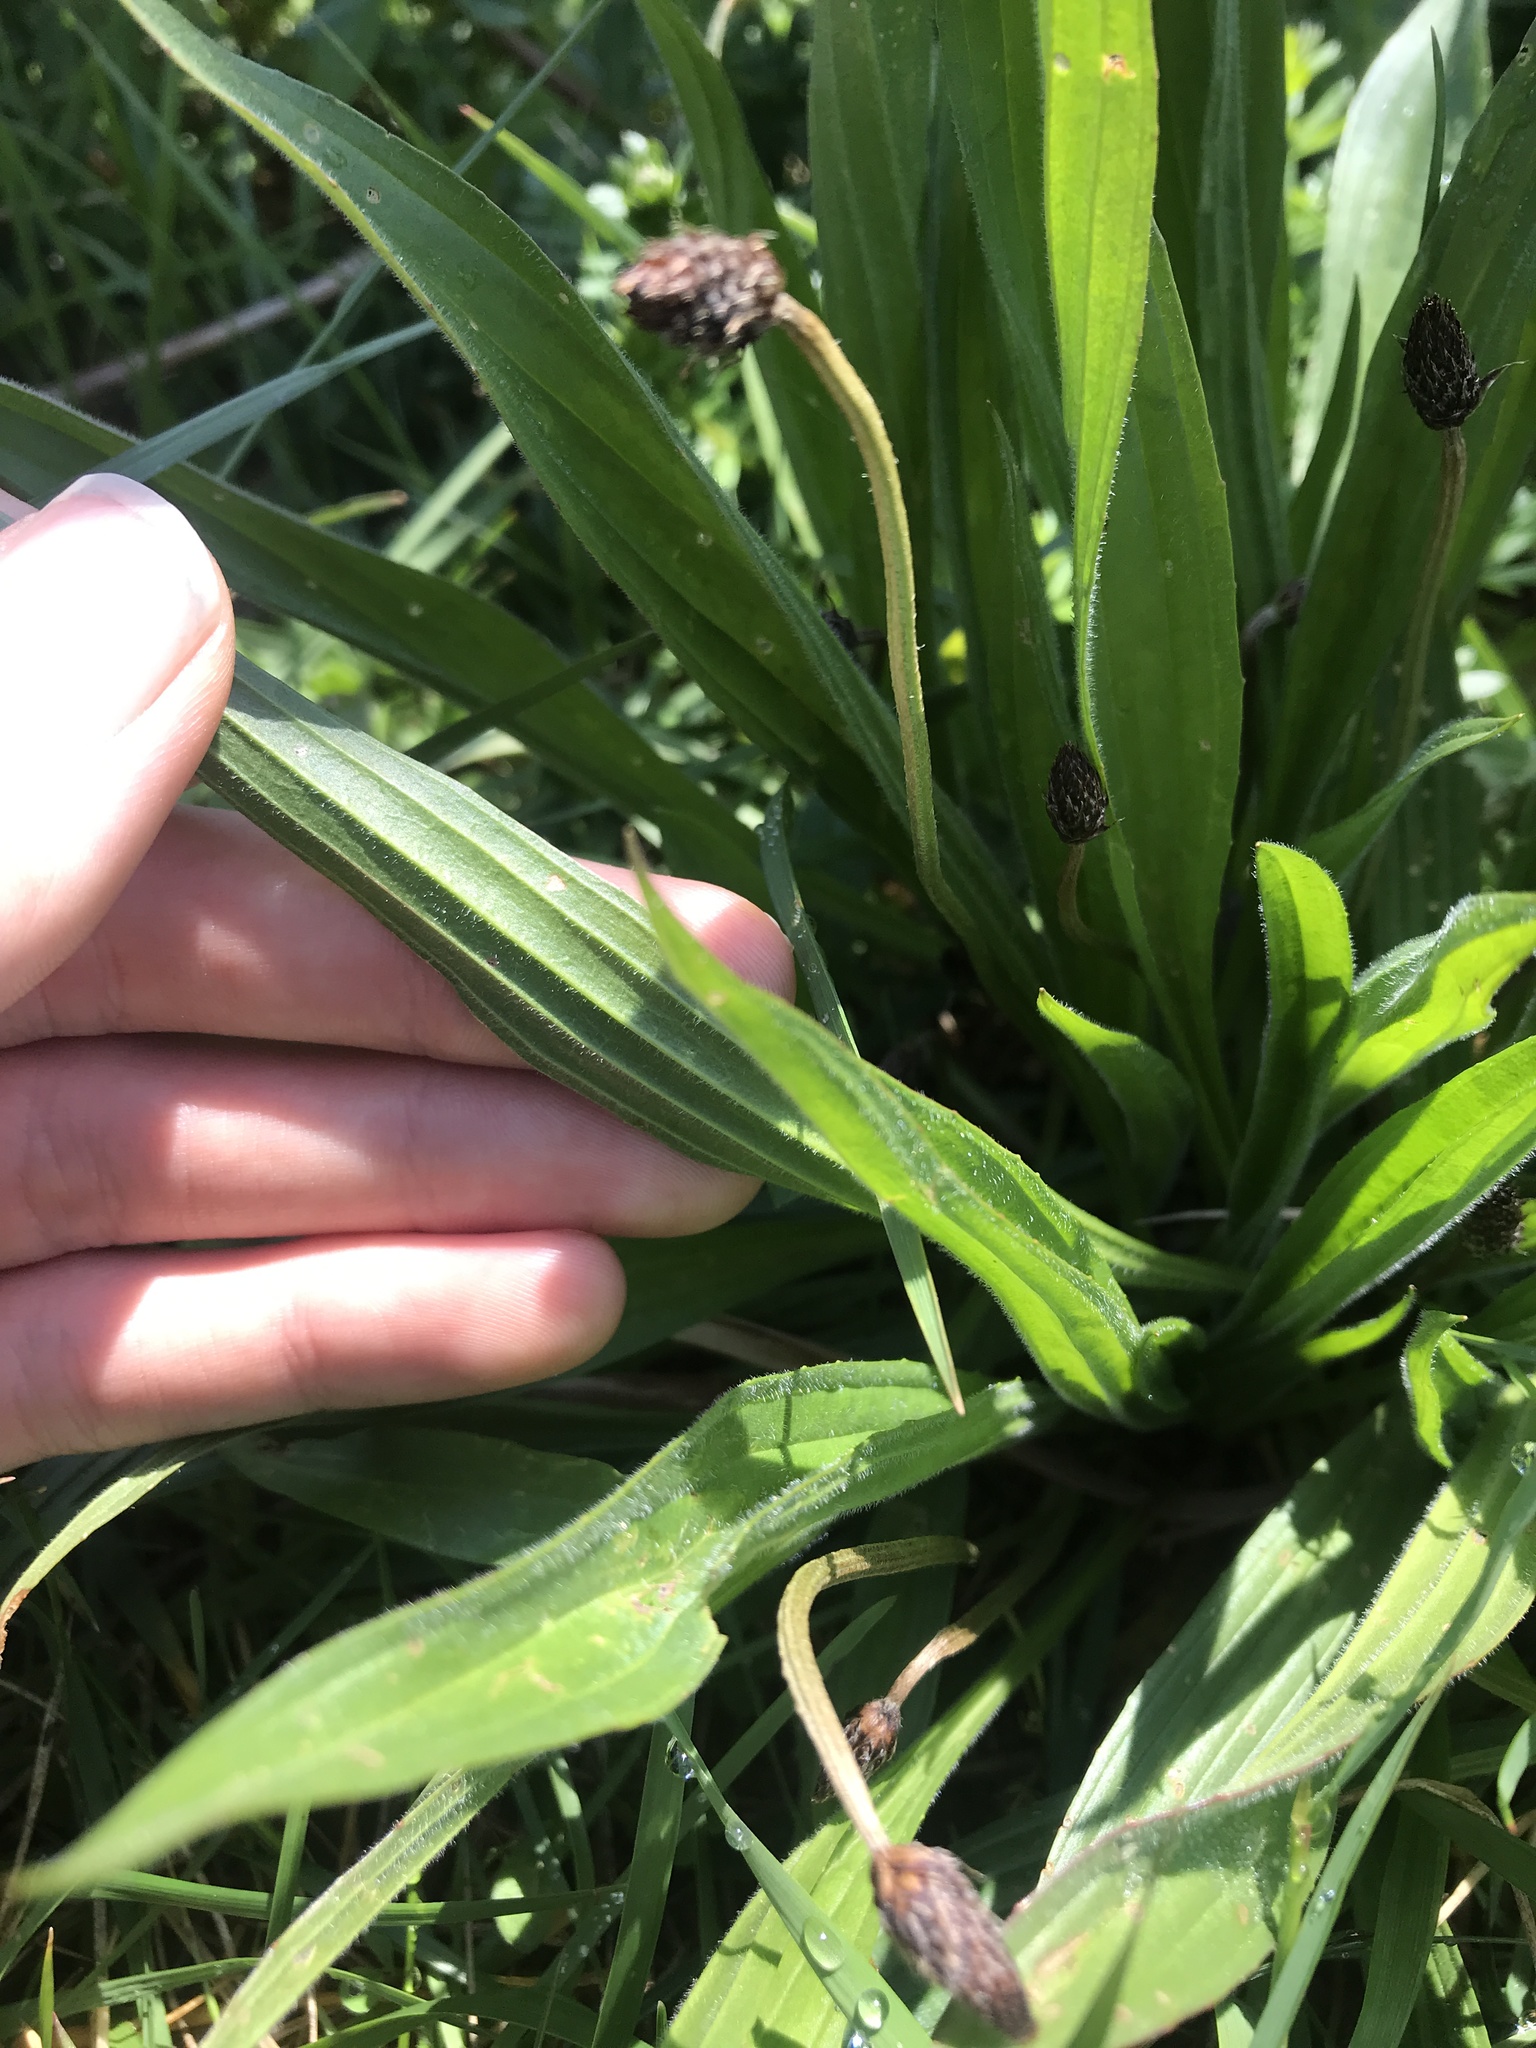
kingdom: Plantae
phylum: Tracheophyta
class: Magnoliopsida
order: Lamiales
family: Plantaginaceae
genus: Plantago
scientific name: Plantago lanceolata
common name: Ribwort plantain
